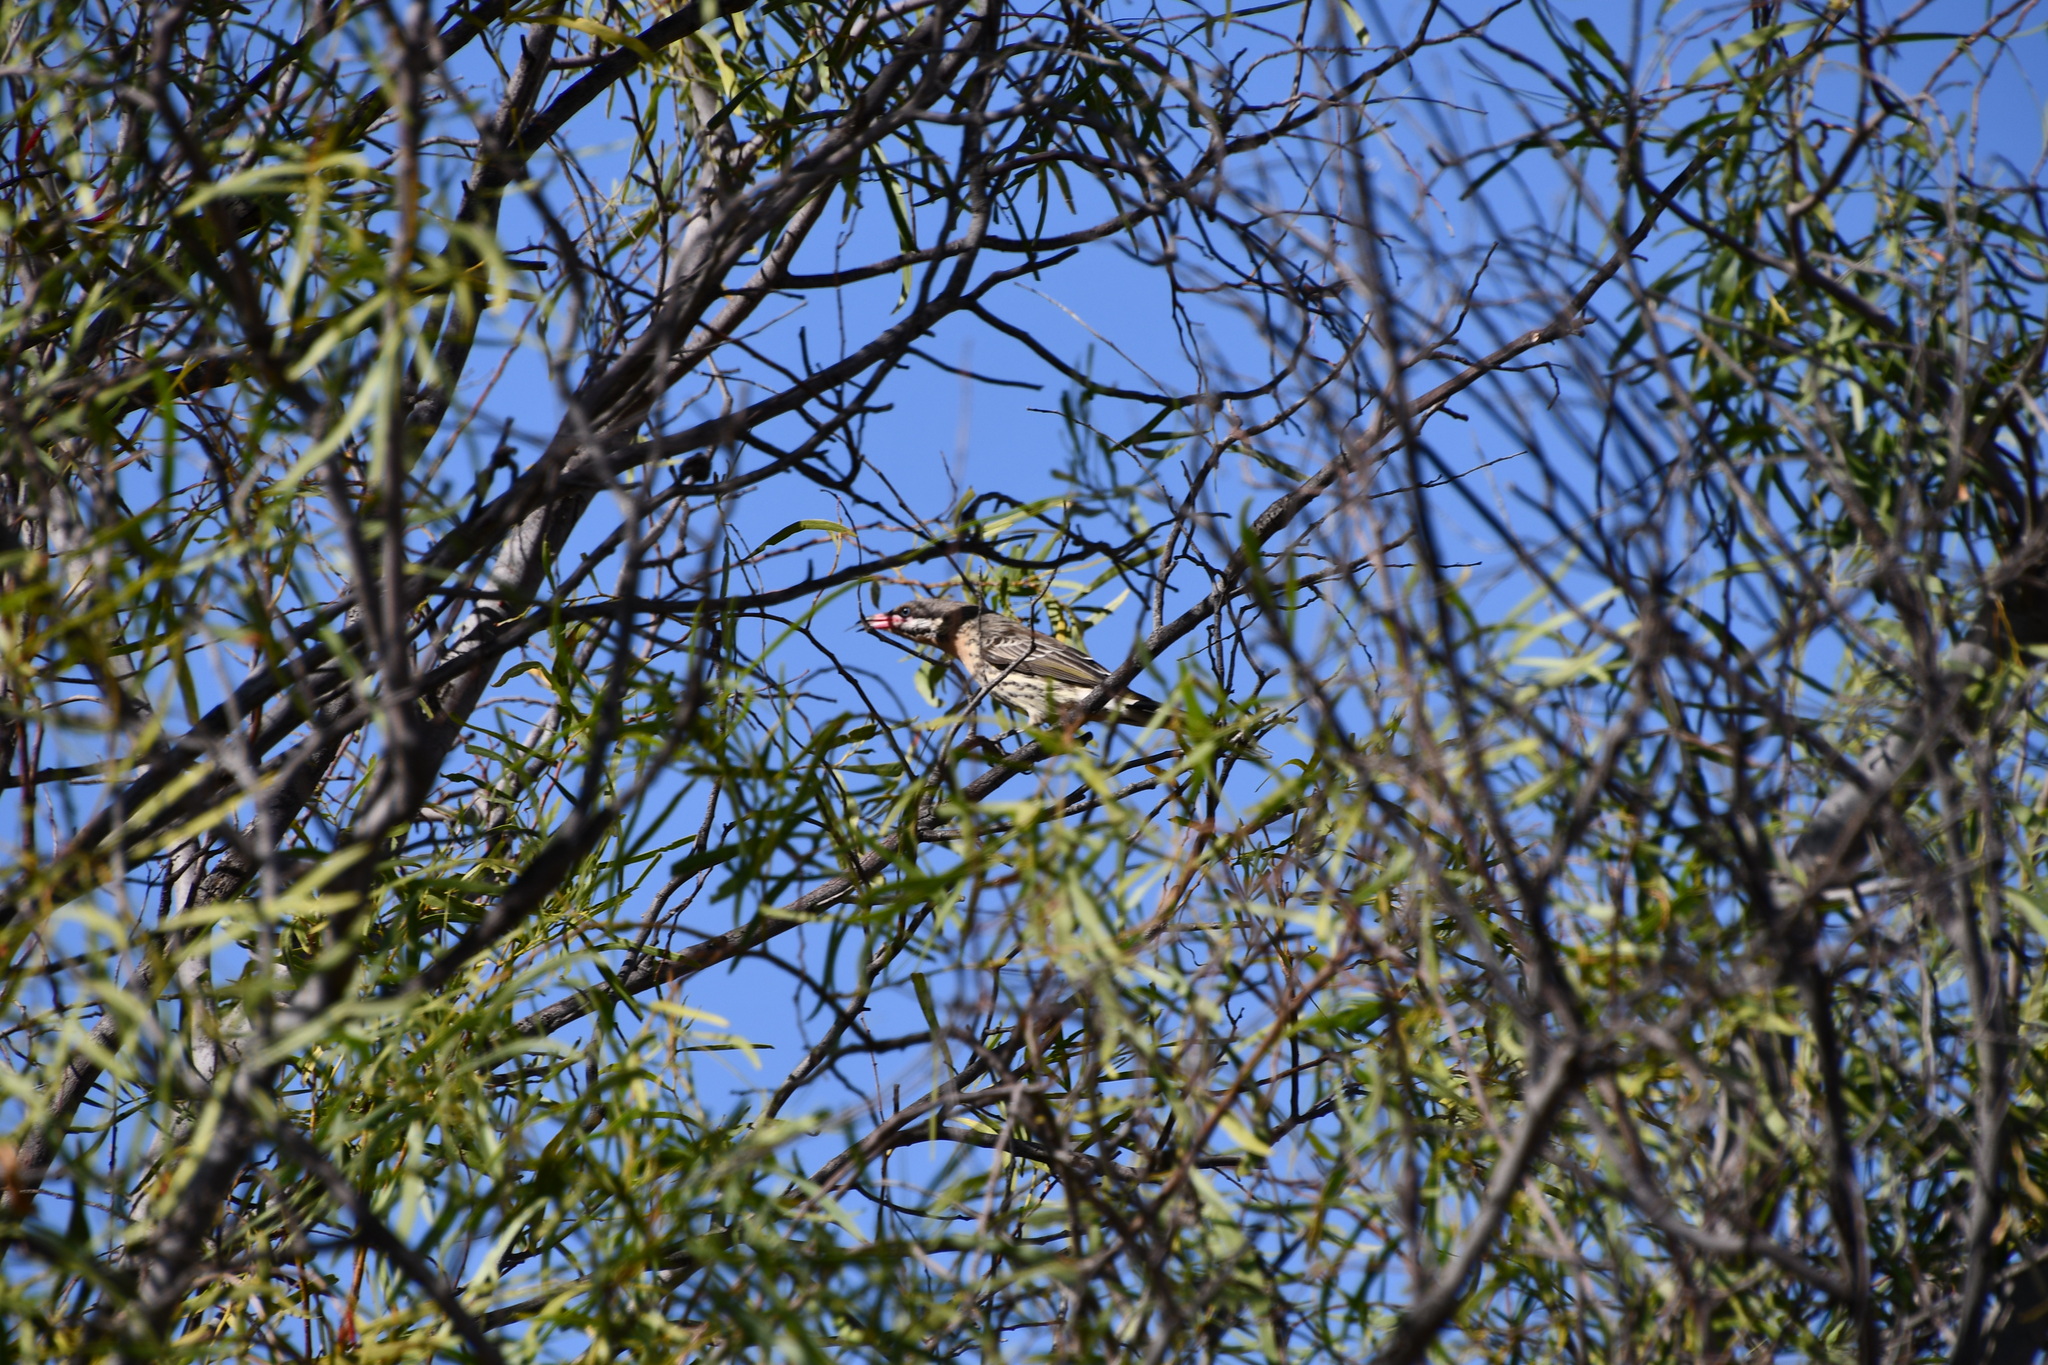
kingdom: Animalia
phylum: Chordata
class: Aves
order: Passeriformes
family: Meliphagidae
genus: Acanthagenys
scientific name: Acanthagenys rufogularis
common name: Spiny-cheeked honeyeater
